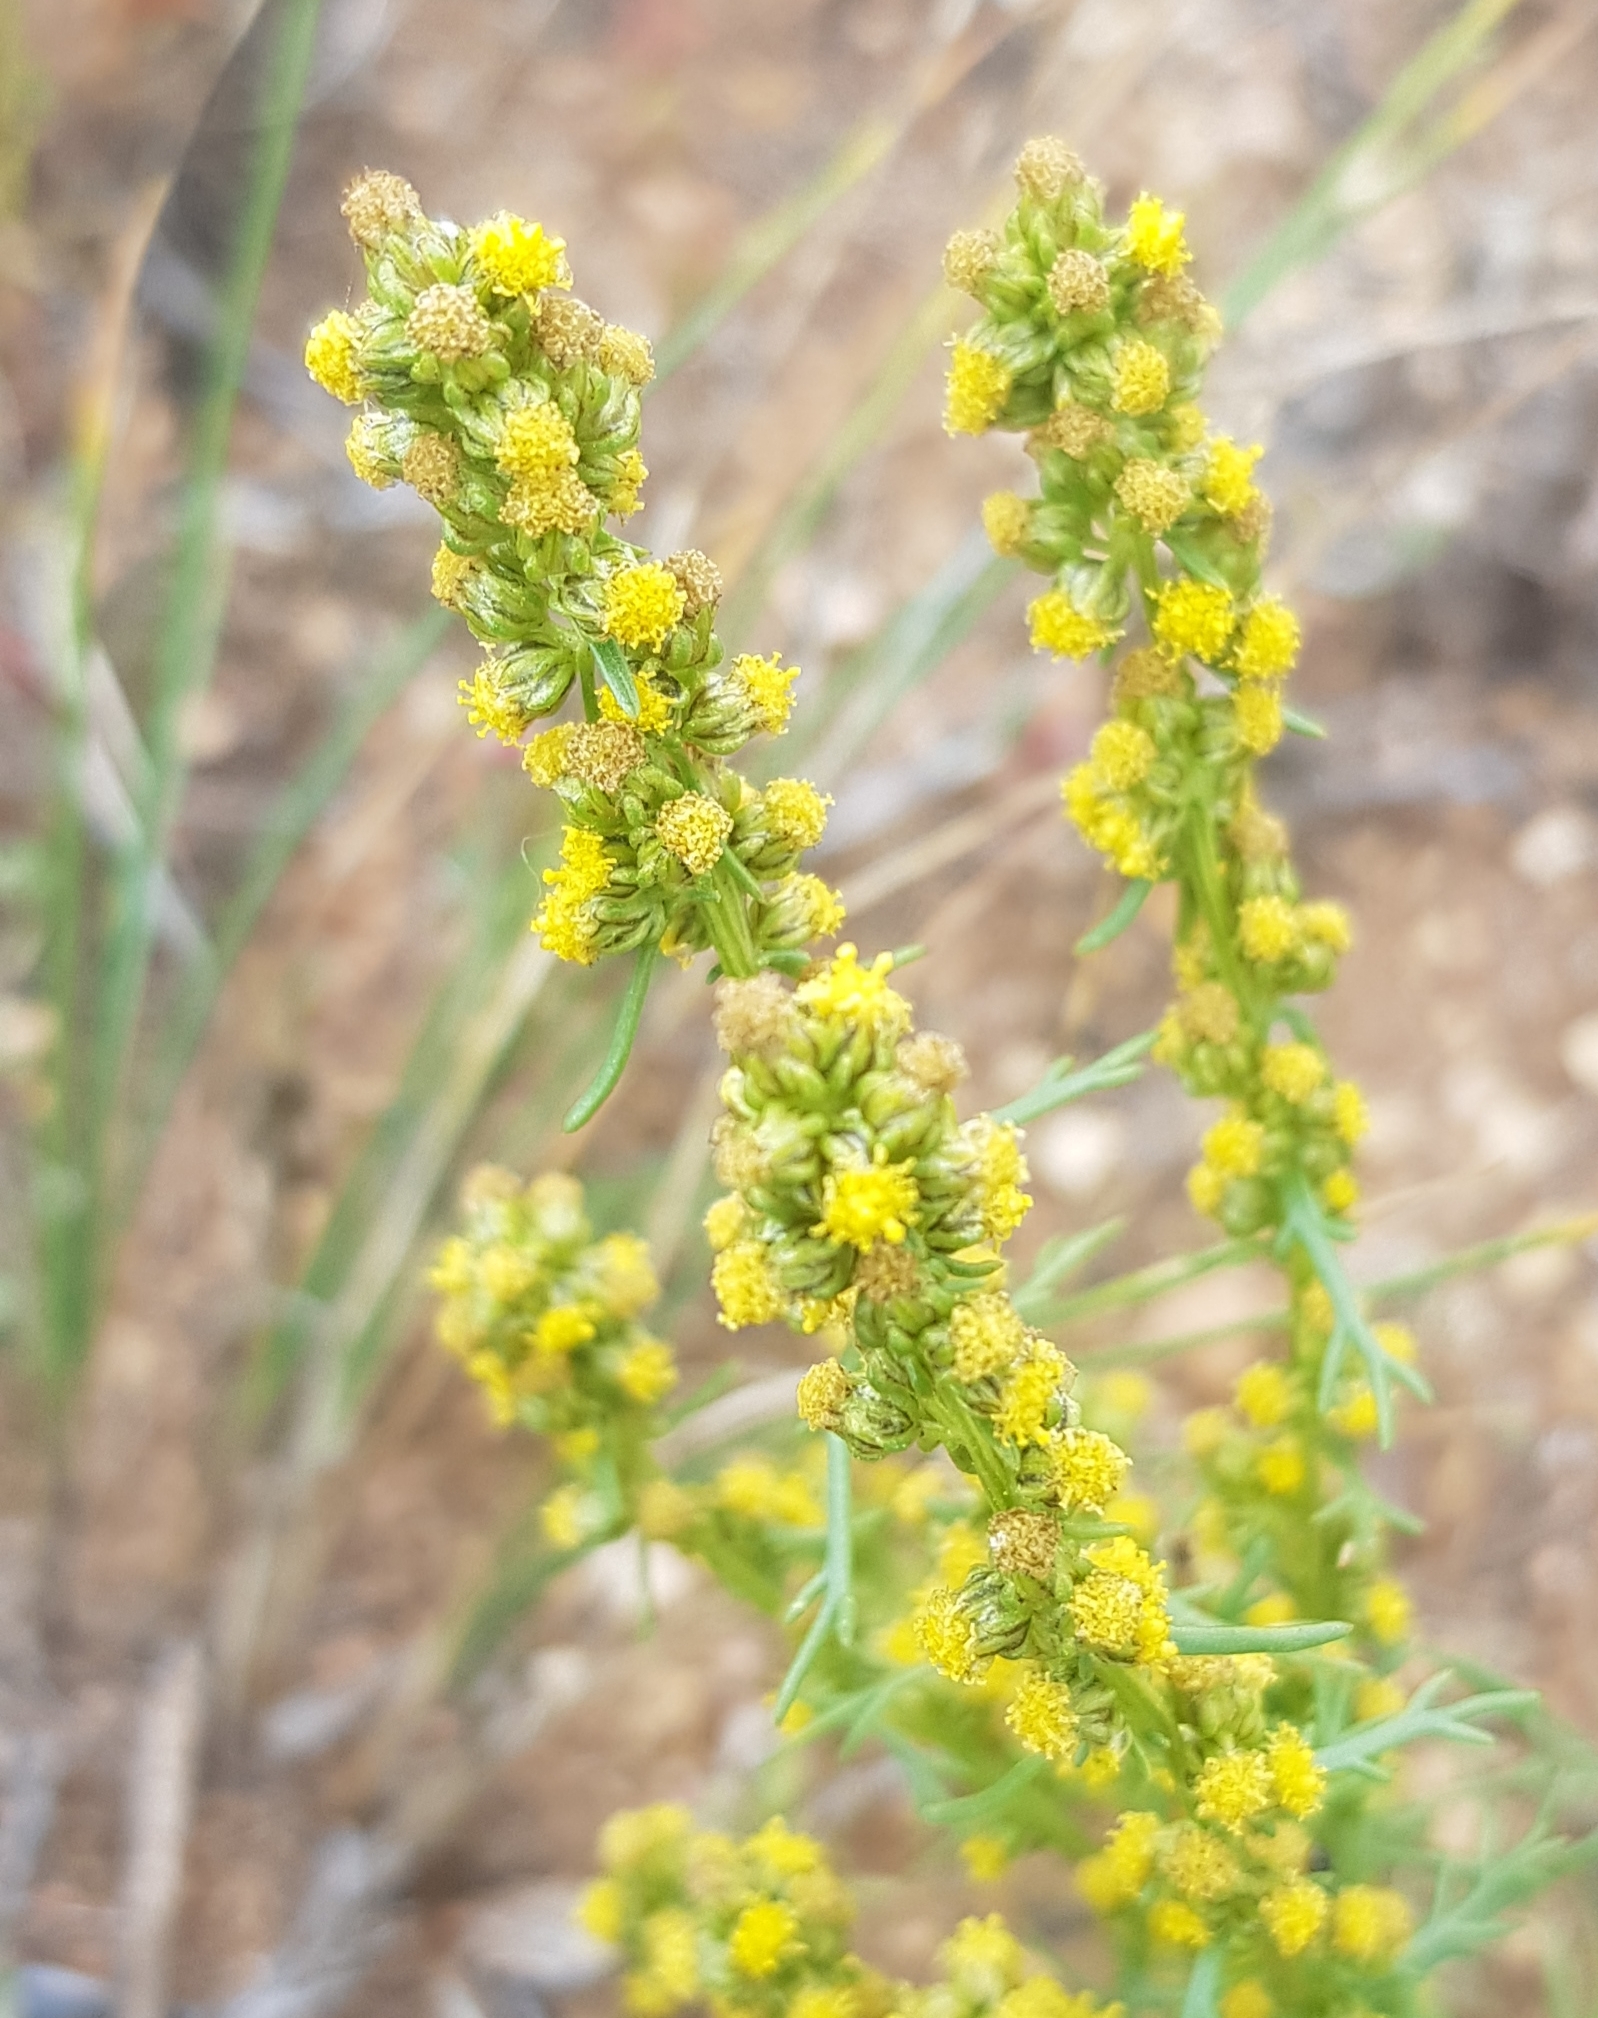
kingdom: Plantae
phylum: Tracheophyta
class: Magnoliopsida
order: Asterales
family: Asteraceae
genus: Artemisia
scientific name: Artemisia palustris
